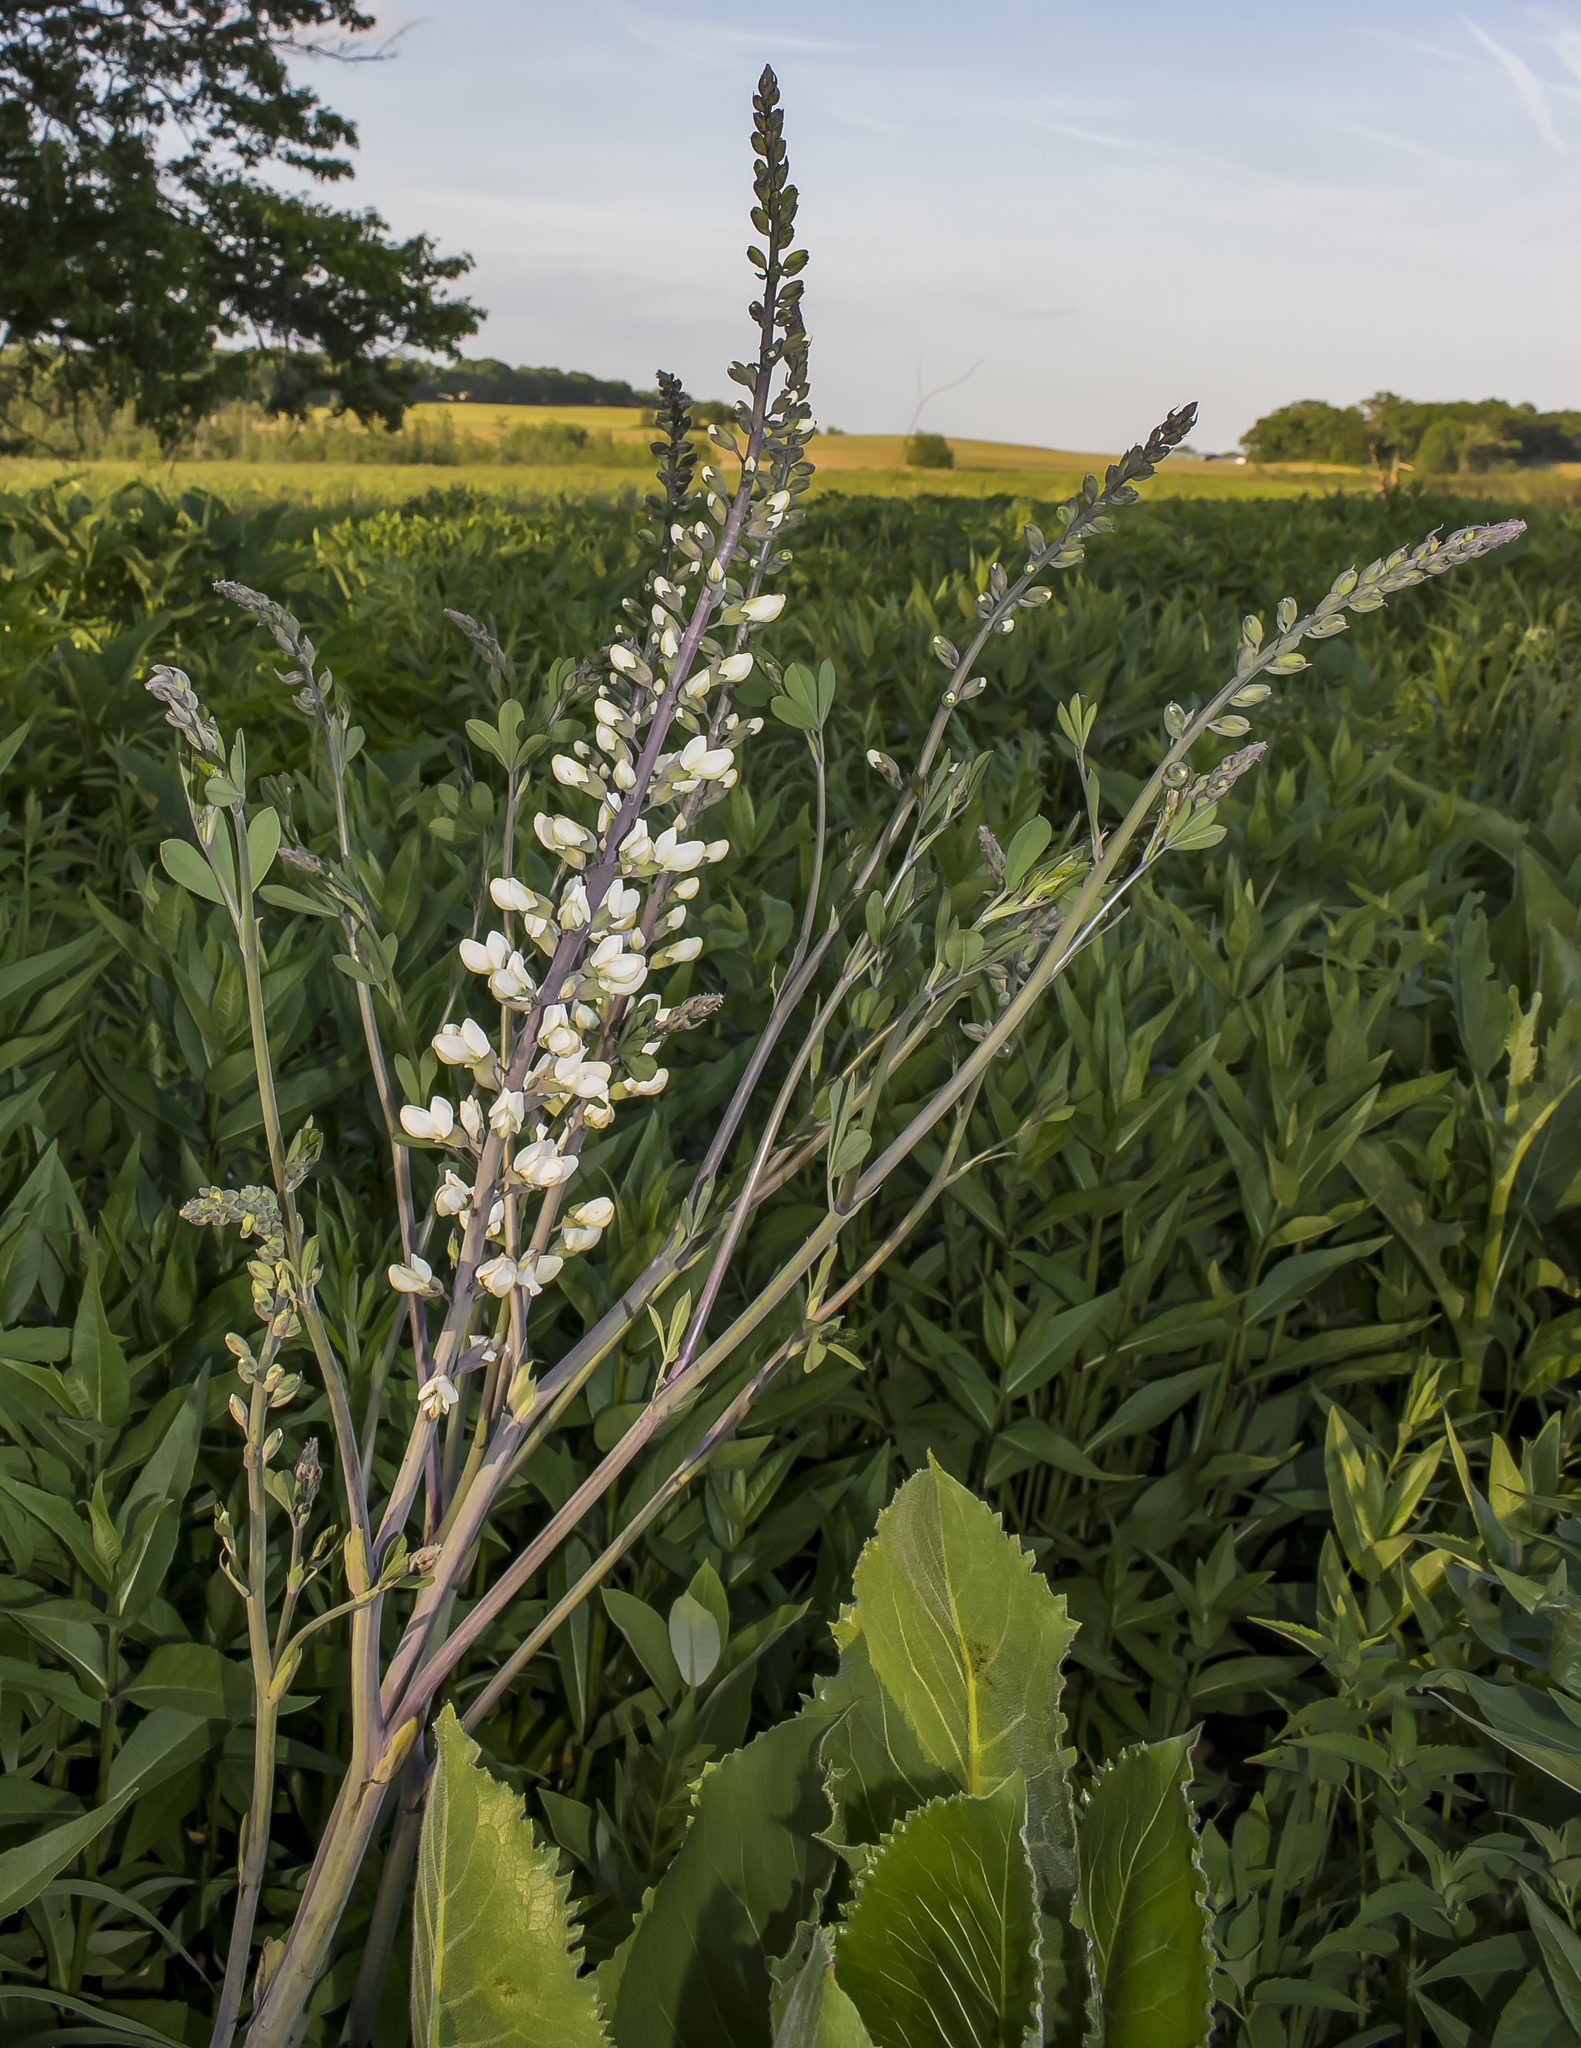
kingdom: Plantae
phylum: Tracheophyta
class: Magnoliopsida
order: Fabales
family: Fabaceae
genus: Baptisia
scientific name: Baptisia alba
